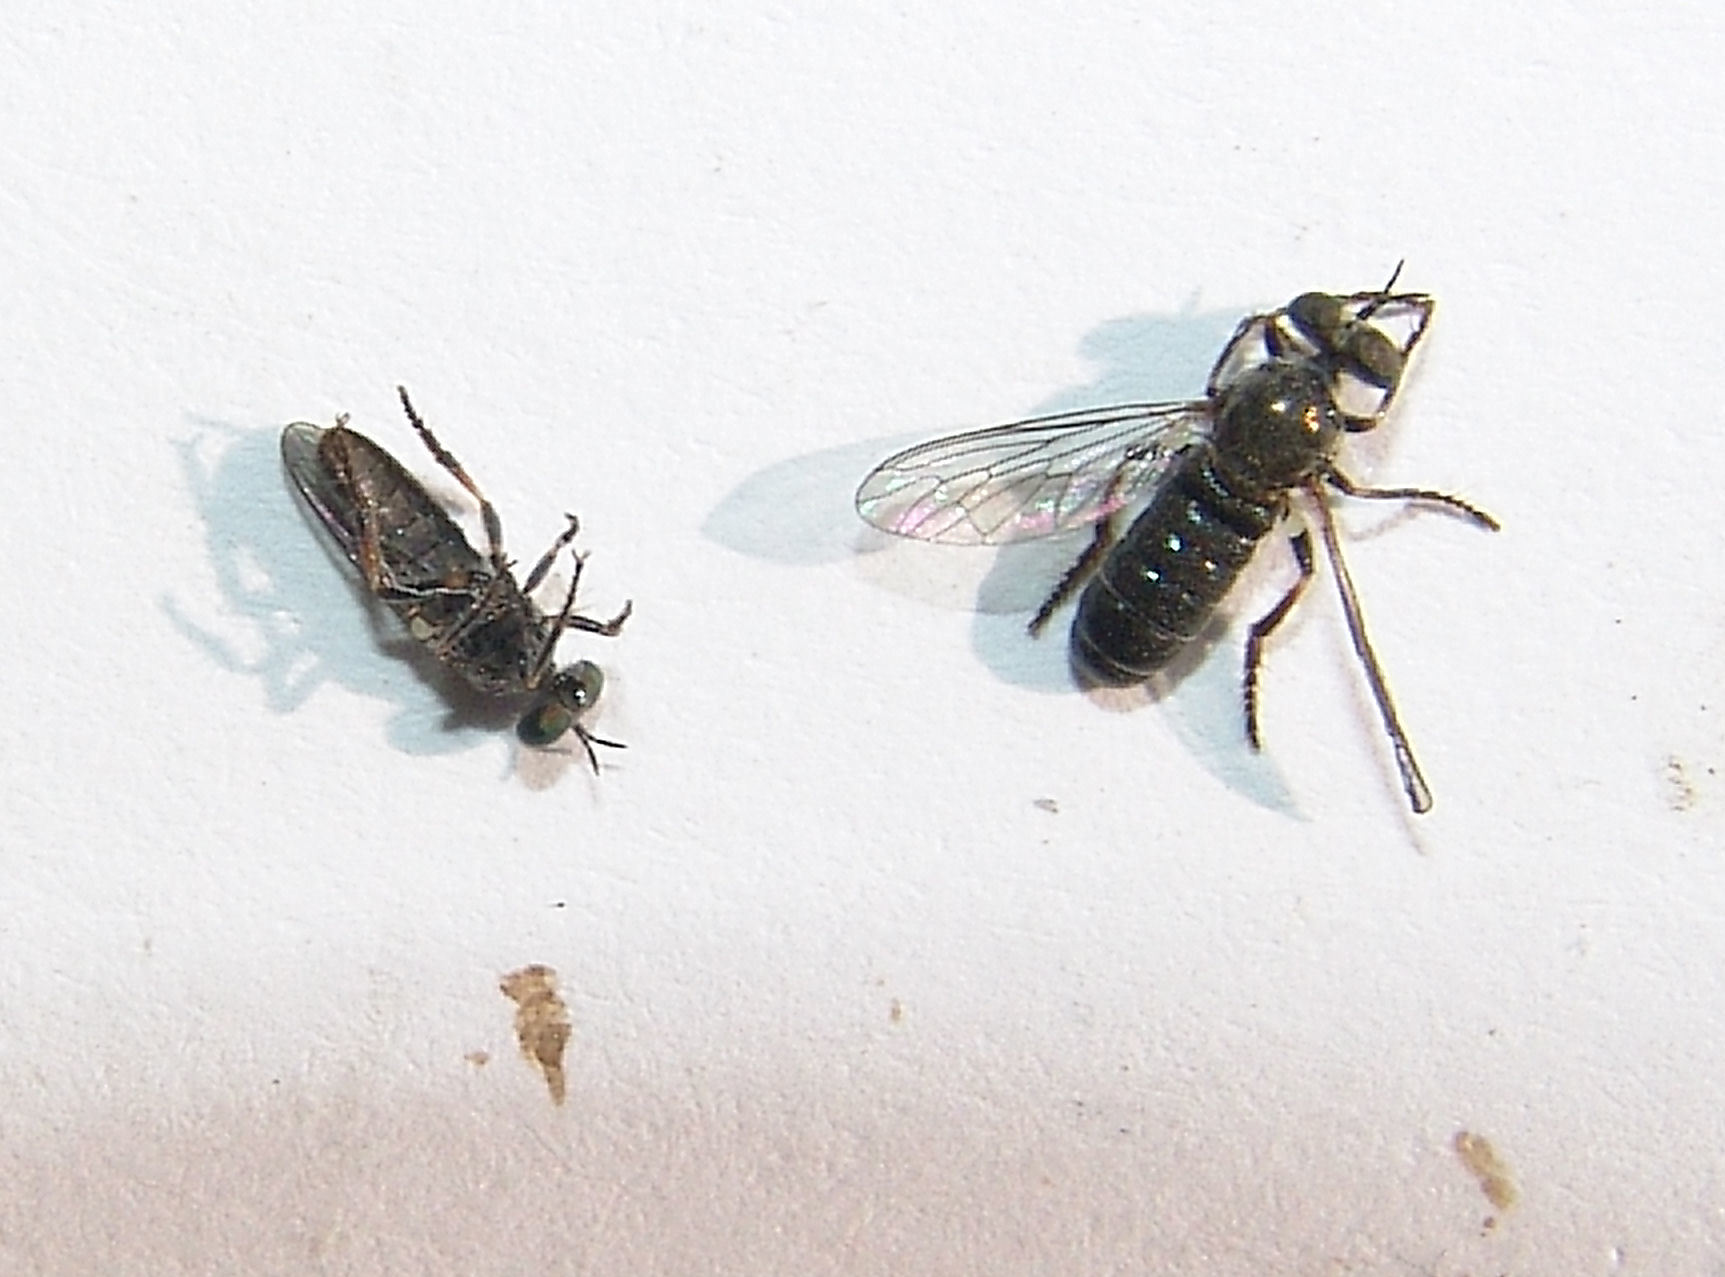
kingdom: Animalia
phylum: Arthropoda
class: Insecta
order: Diptera
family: Asilidae
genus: Atomosia
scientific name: Atomosia puella
